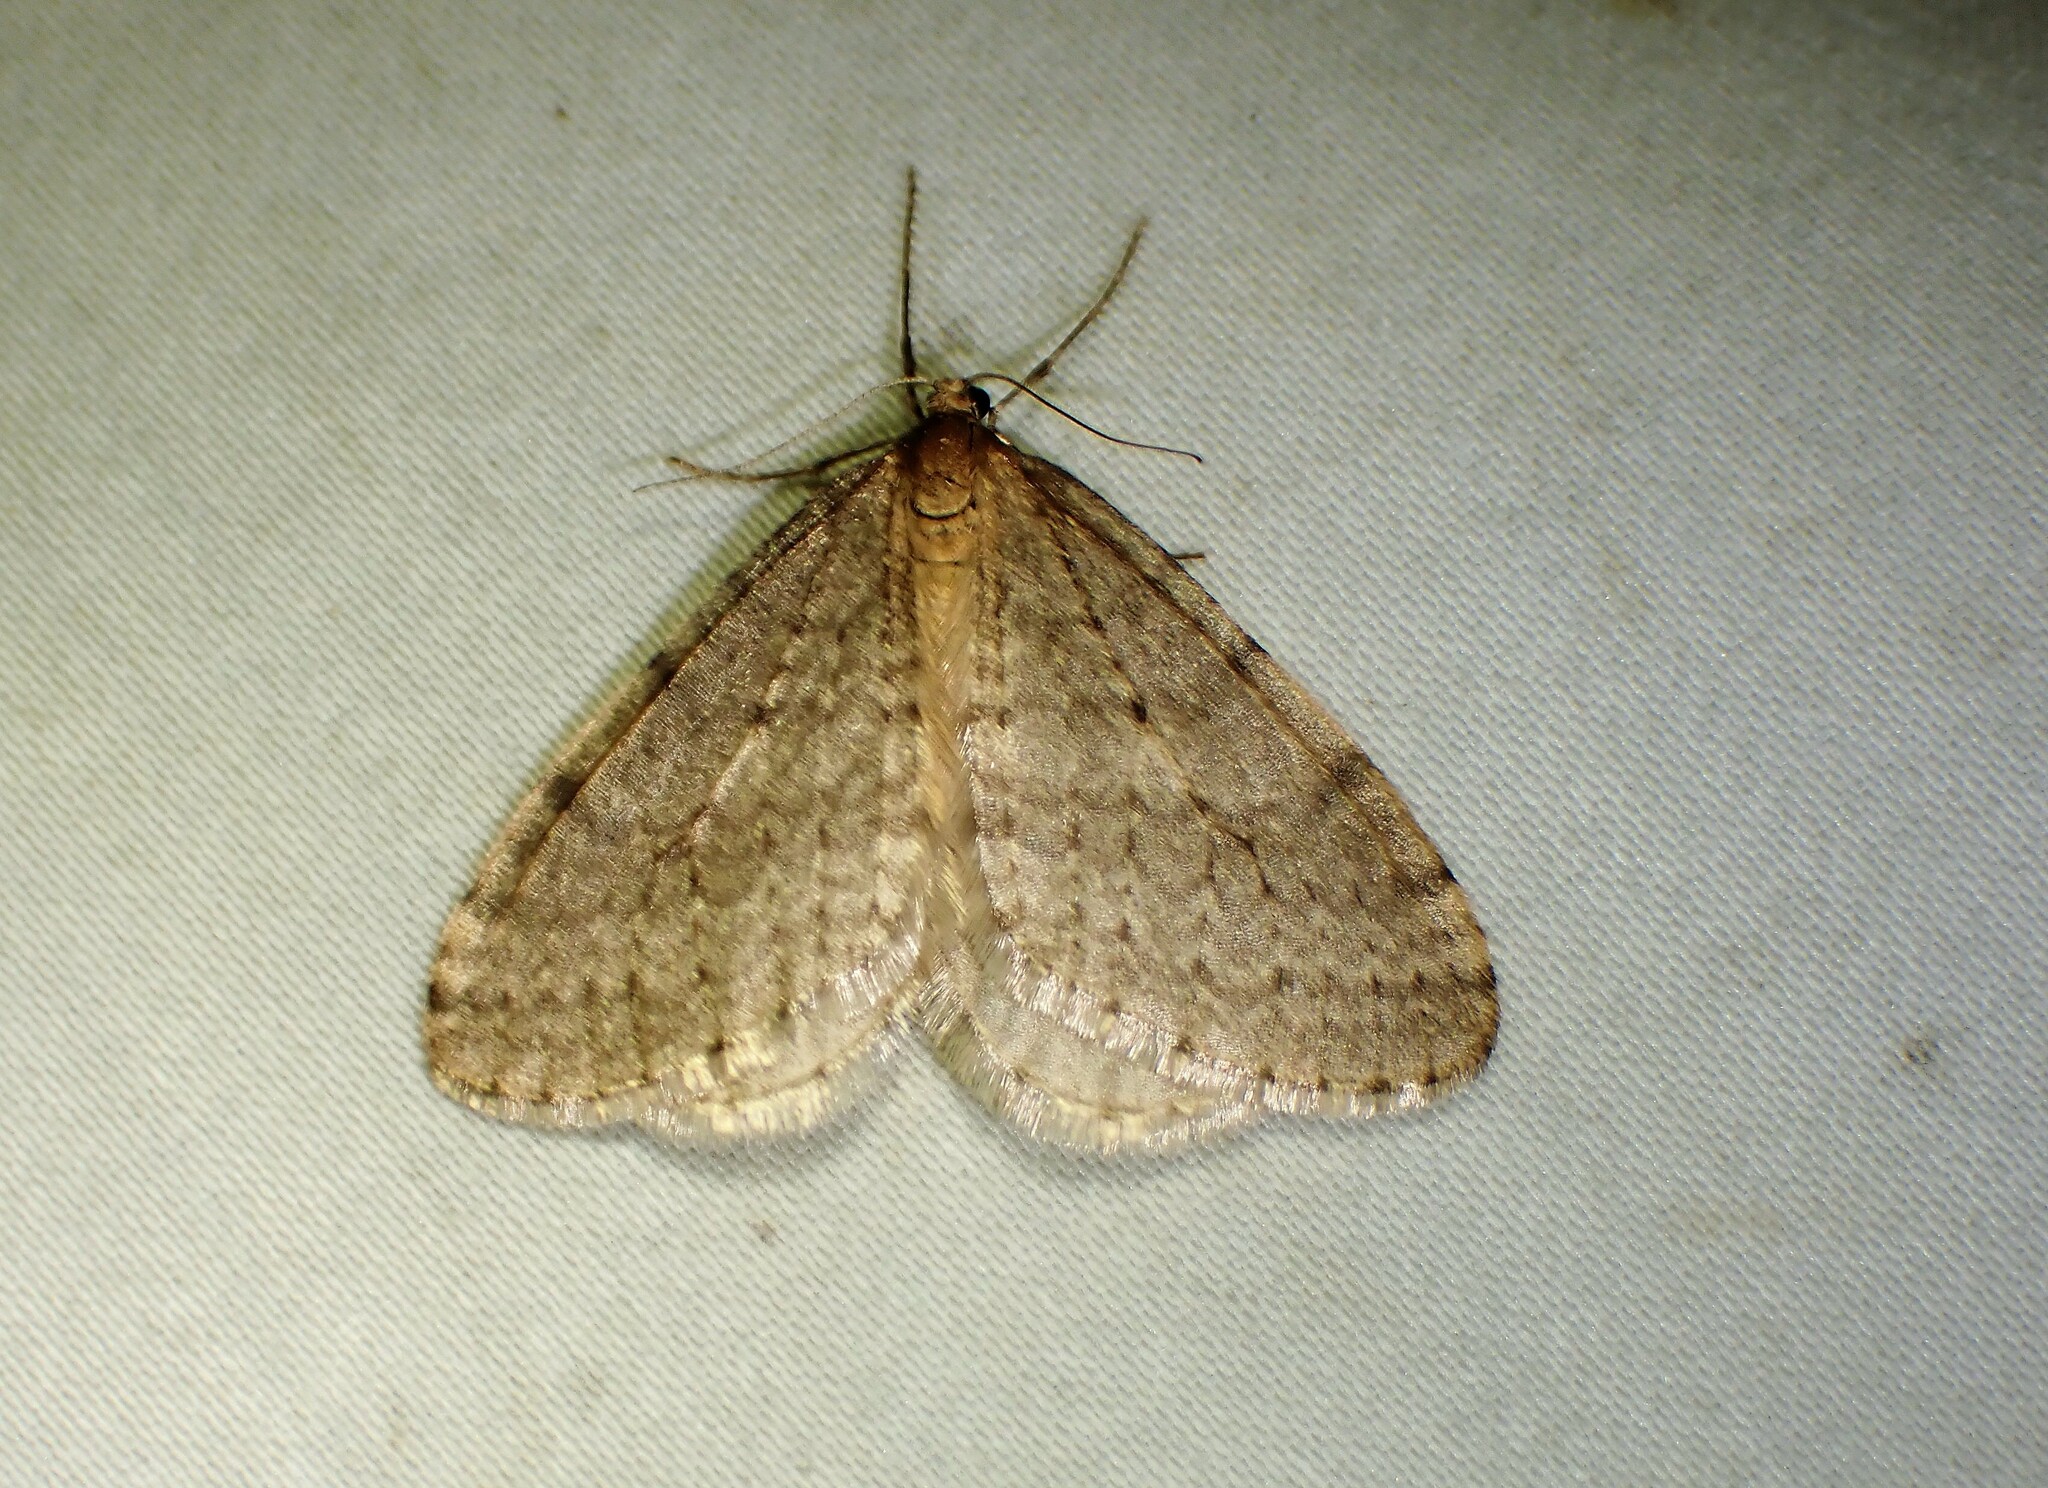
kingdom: Animalia
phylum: Arthropoda
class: Insecta
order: Lepidoptera
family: Geometridae
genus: Operophtera
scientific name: Operophtera bruceata
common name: Bruce spanworm
